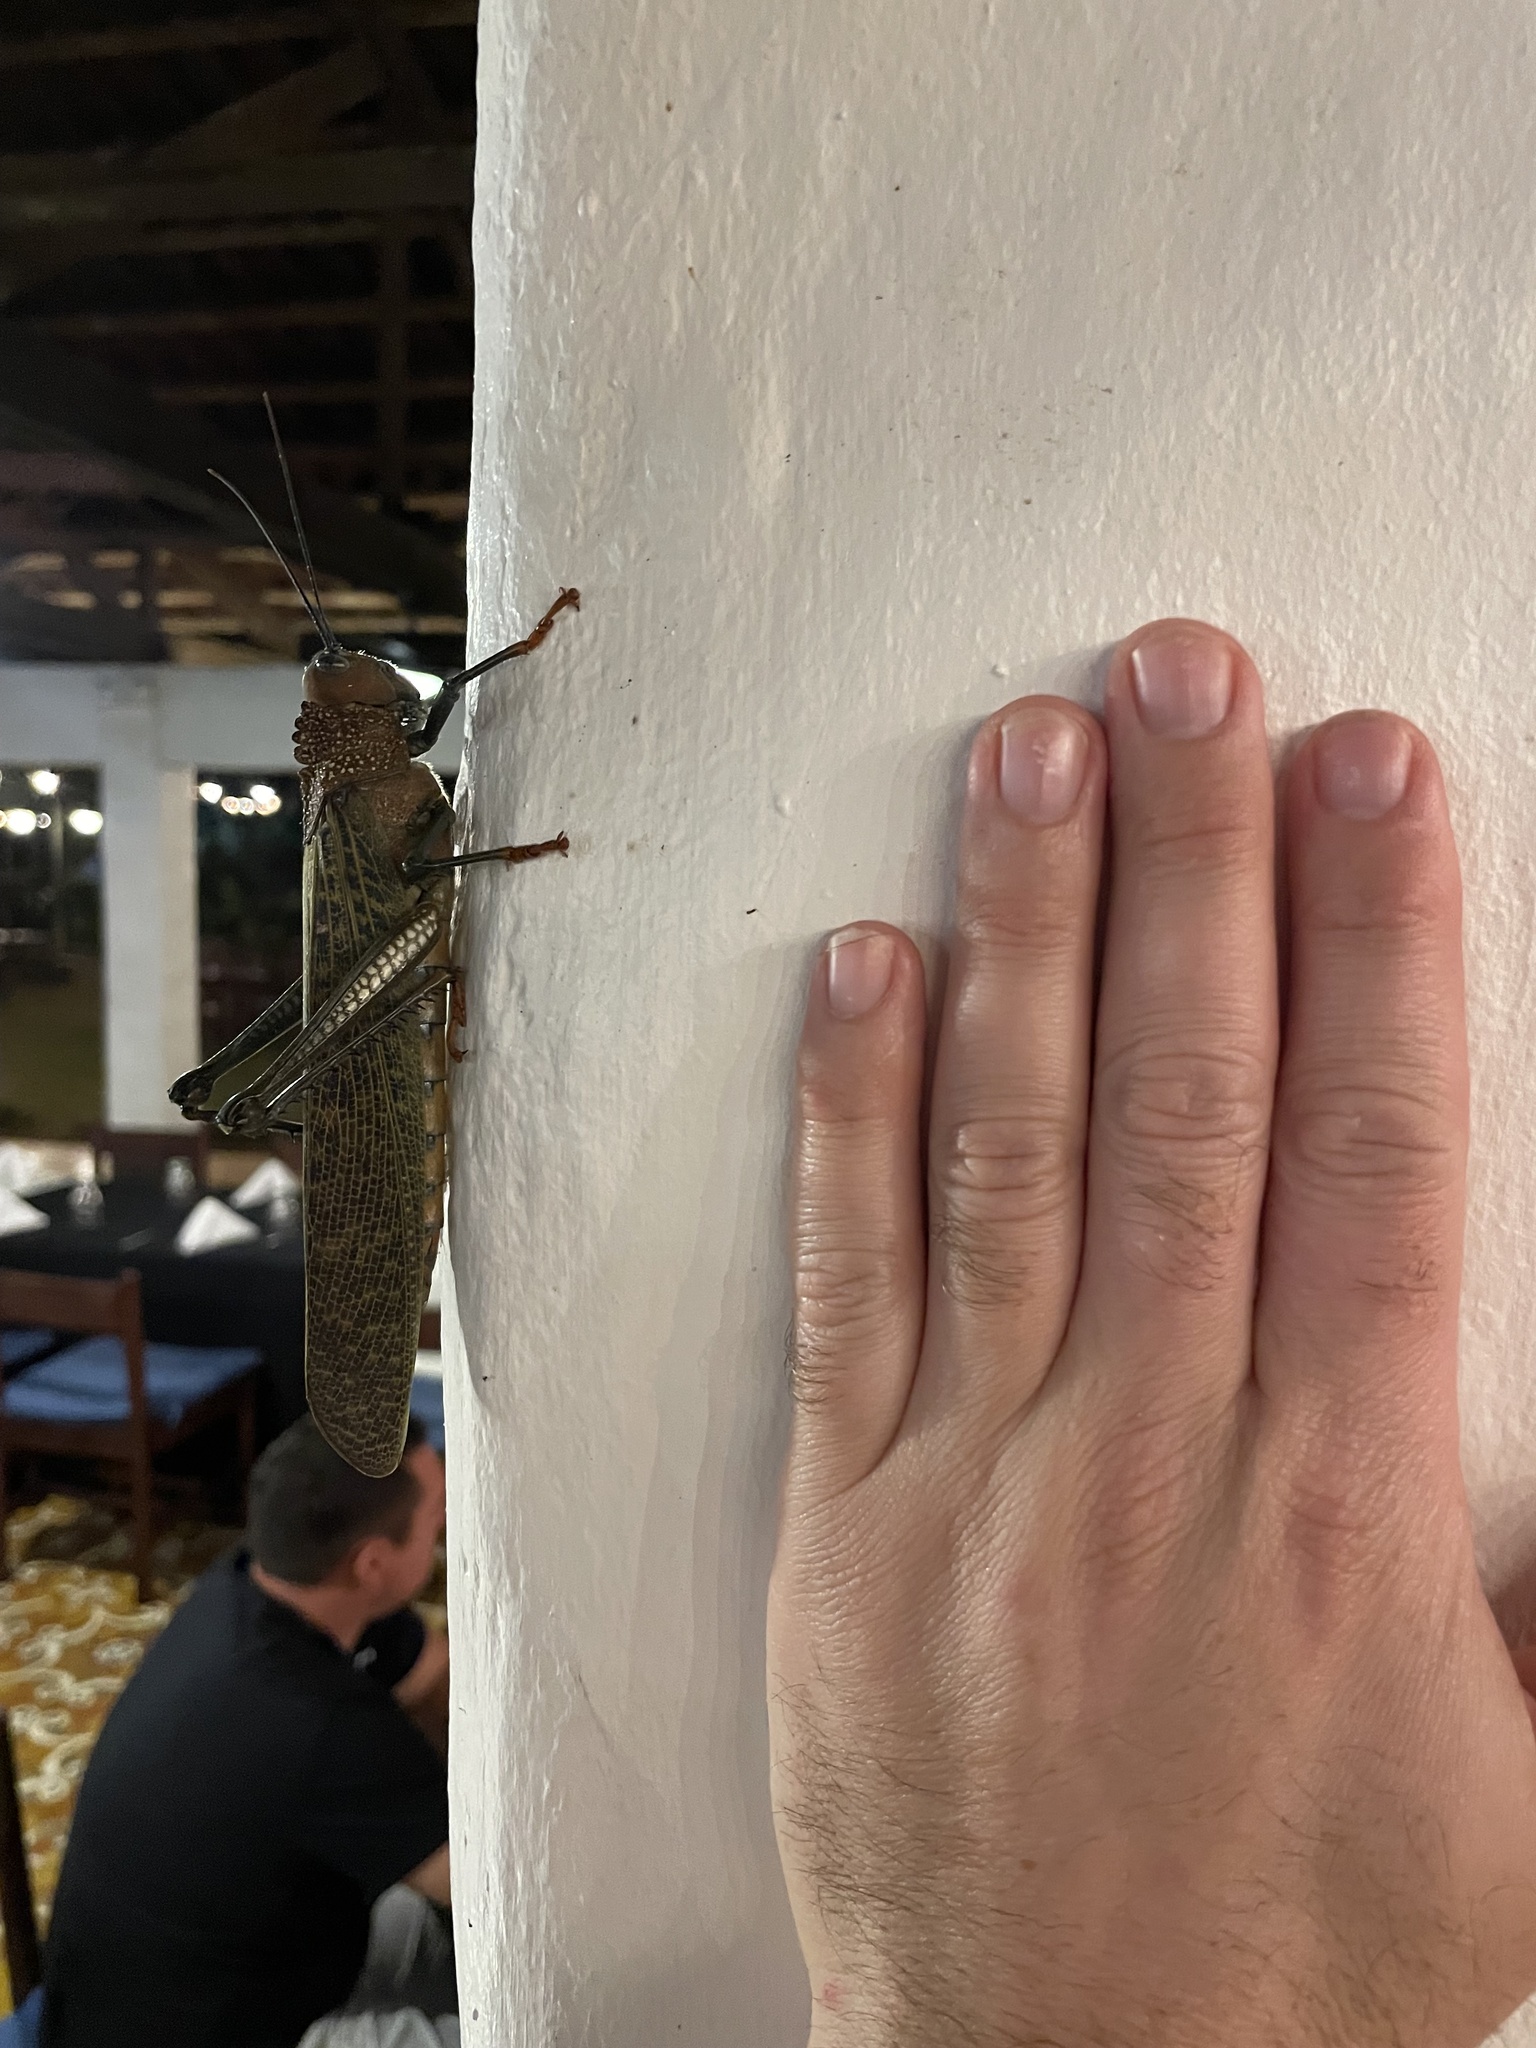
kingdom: Animalia
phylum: Arthropoda
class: Insecta
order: Orthoptera
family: Romaleidae
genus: Tropidacris
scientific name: Tropidacris cristata
